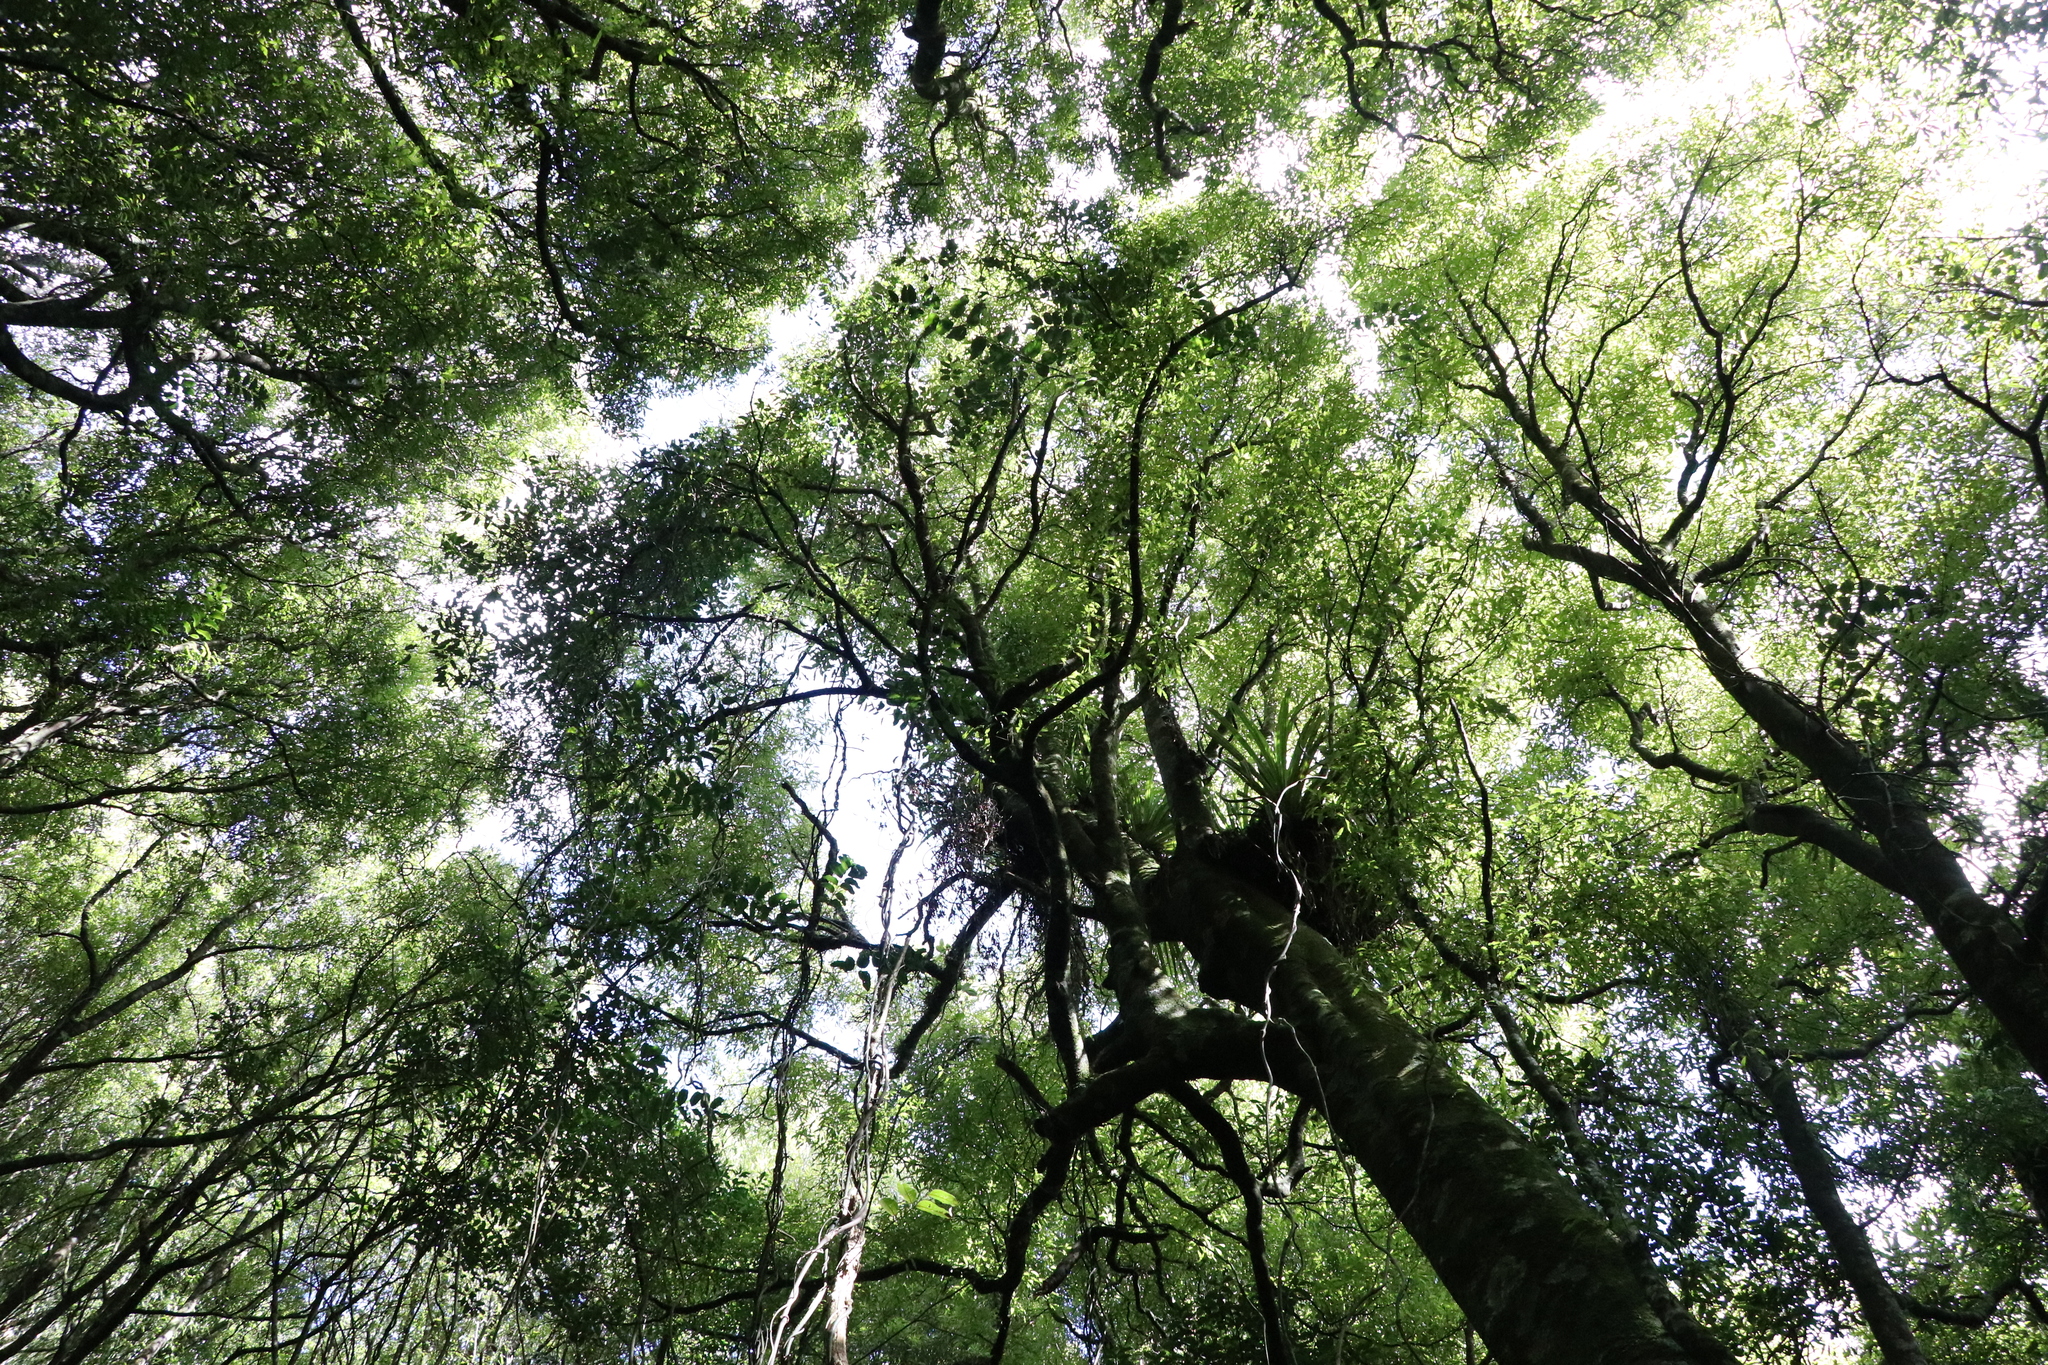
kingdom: Plantae
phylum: Tracheophyta
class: Magnoliopsida
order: Laurales
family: Lauraceae
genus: Beilschmiedia
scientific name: Beilschmiedia tawa
